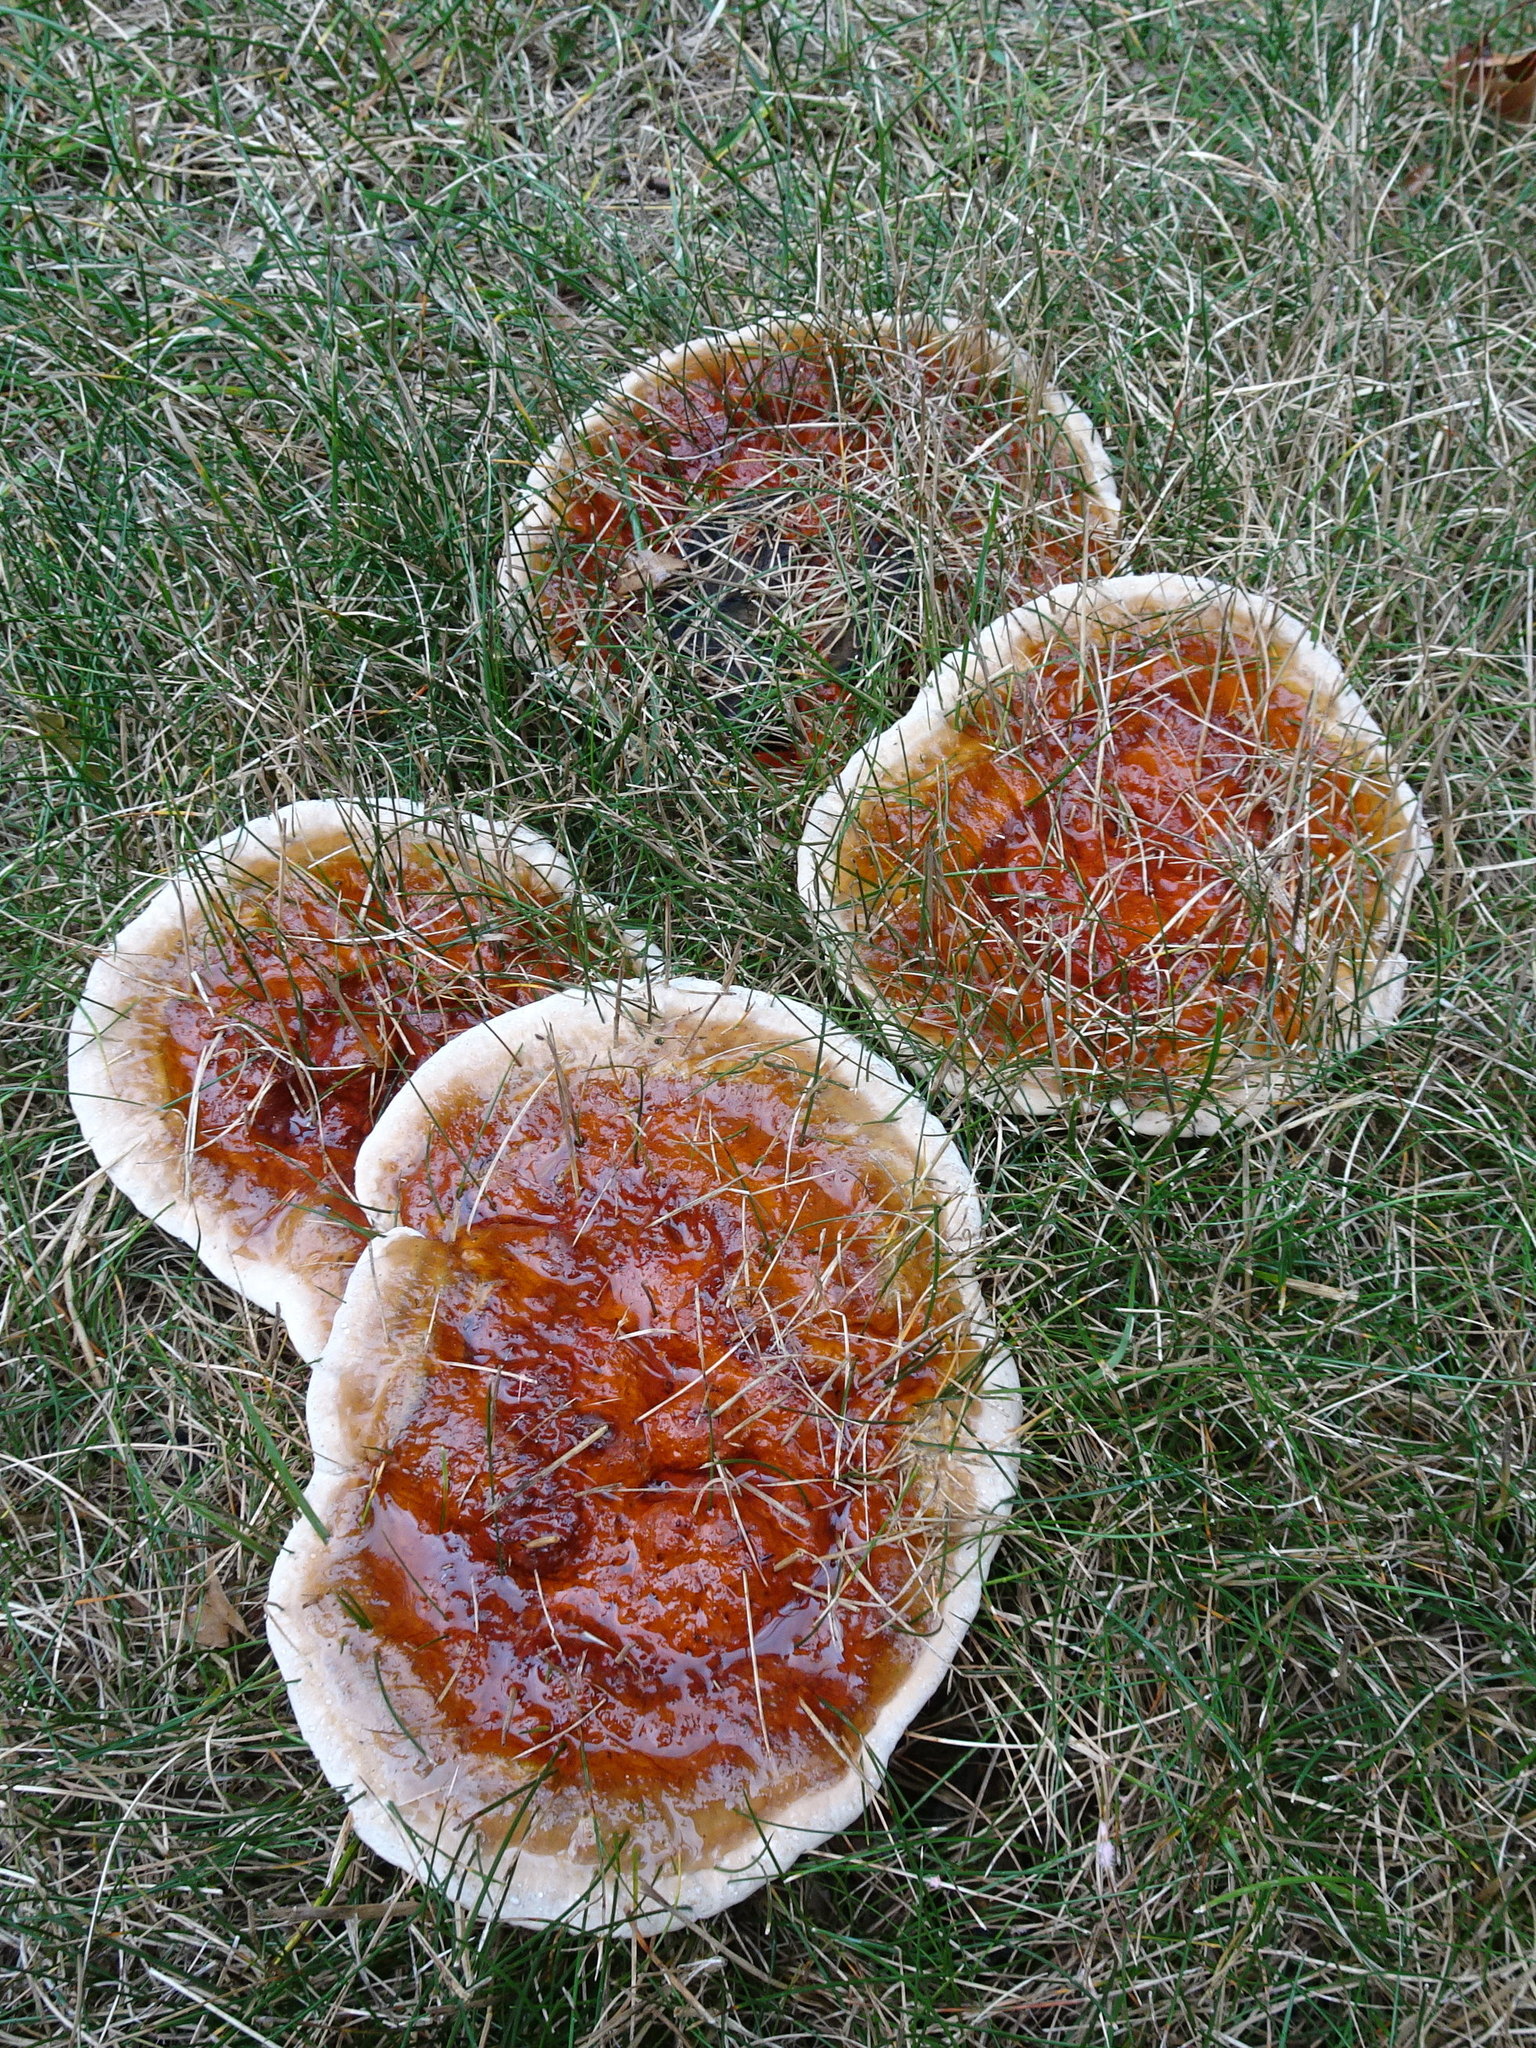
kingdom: Fungi
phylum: Basidiomycota
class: Agaricomycetes
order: Polyporales
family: Polyporaceae
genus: Ganoderma
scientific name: Ganoderma resinaceum
